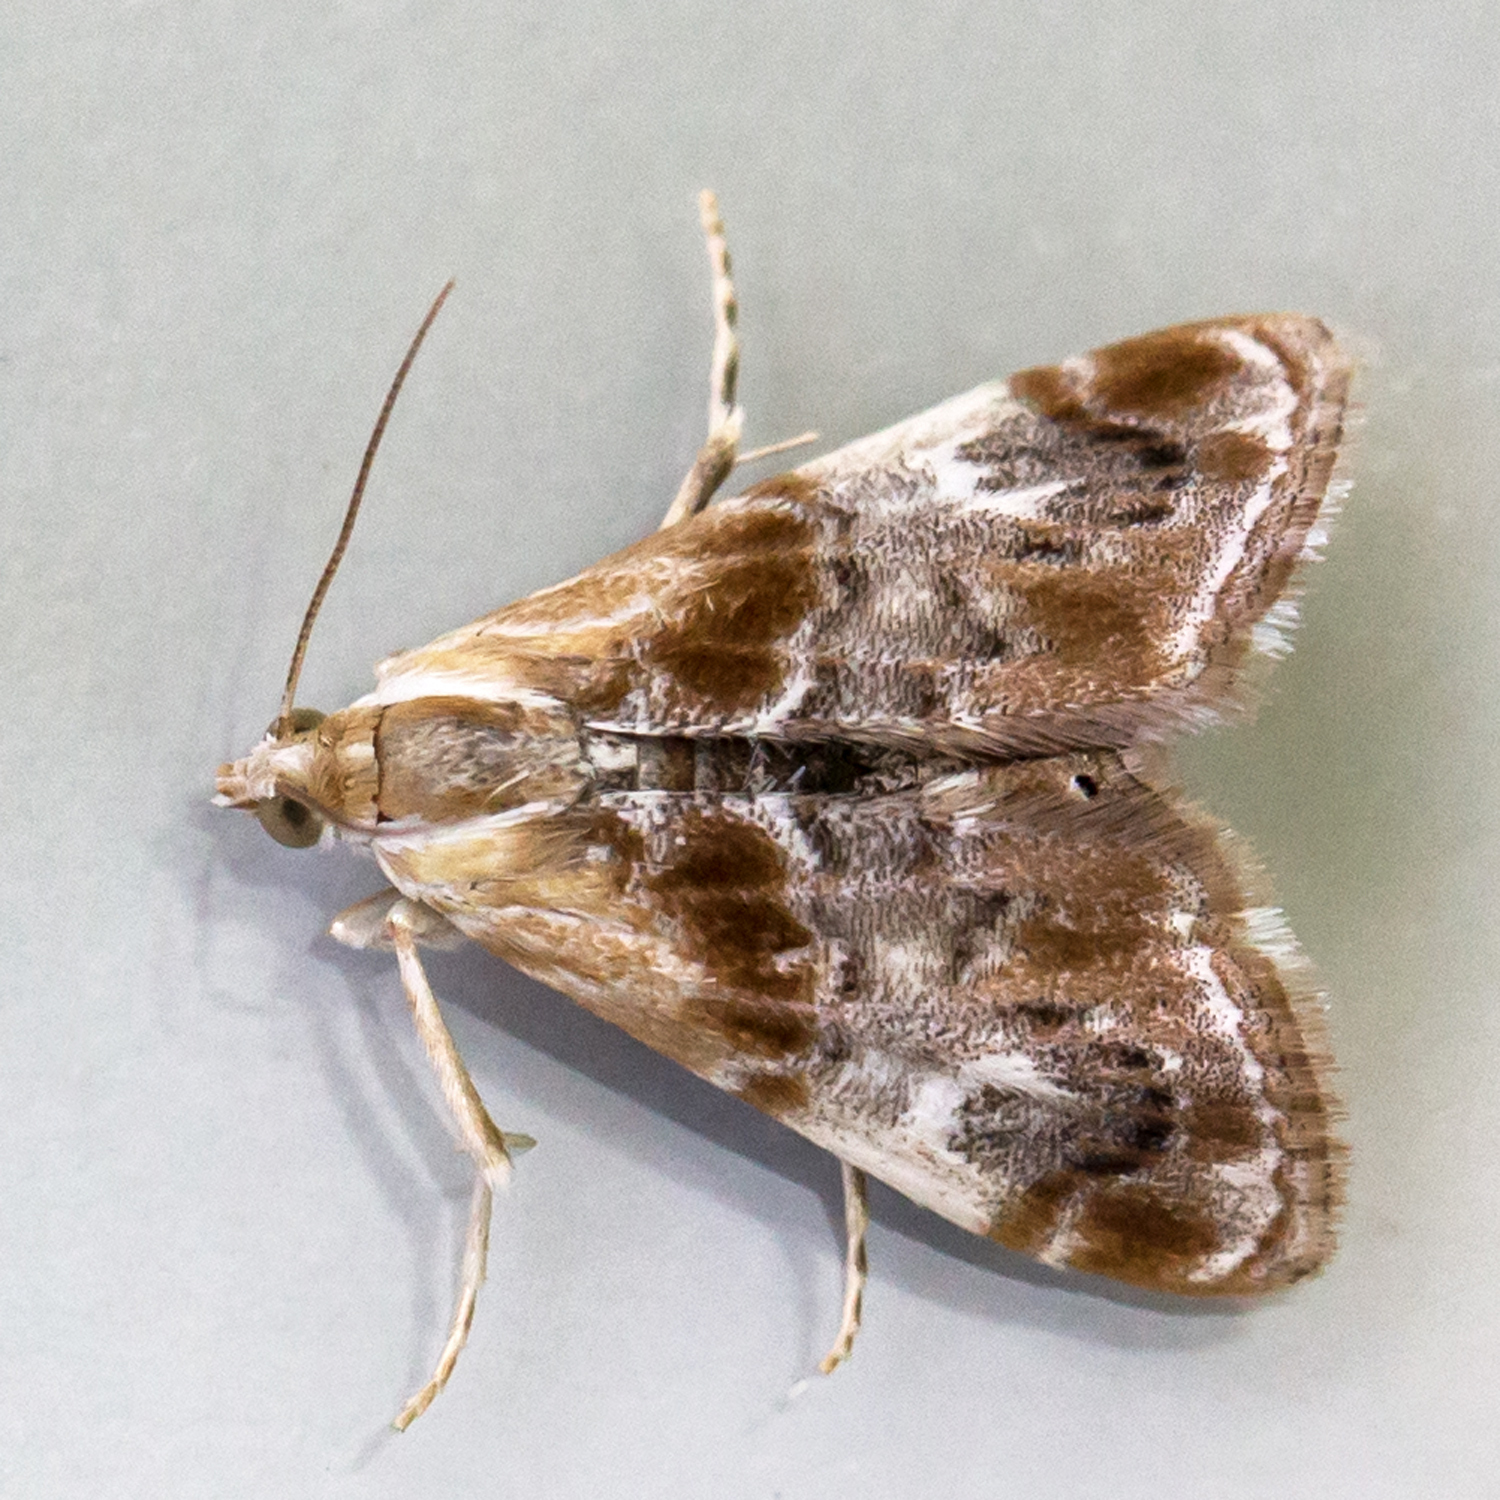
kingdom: Animalia
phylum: Arthropoda
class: Insecta
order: Lepidoptera
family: Crambidae
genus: Dicymolomia
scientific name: Dicymolomia julianalis
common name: Julia's dicymolomia moth
